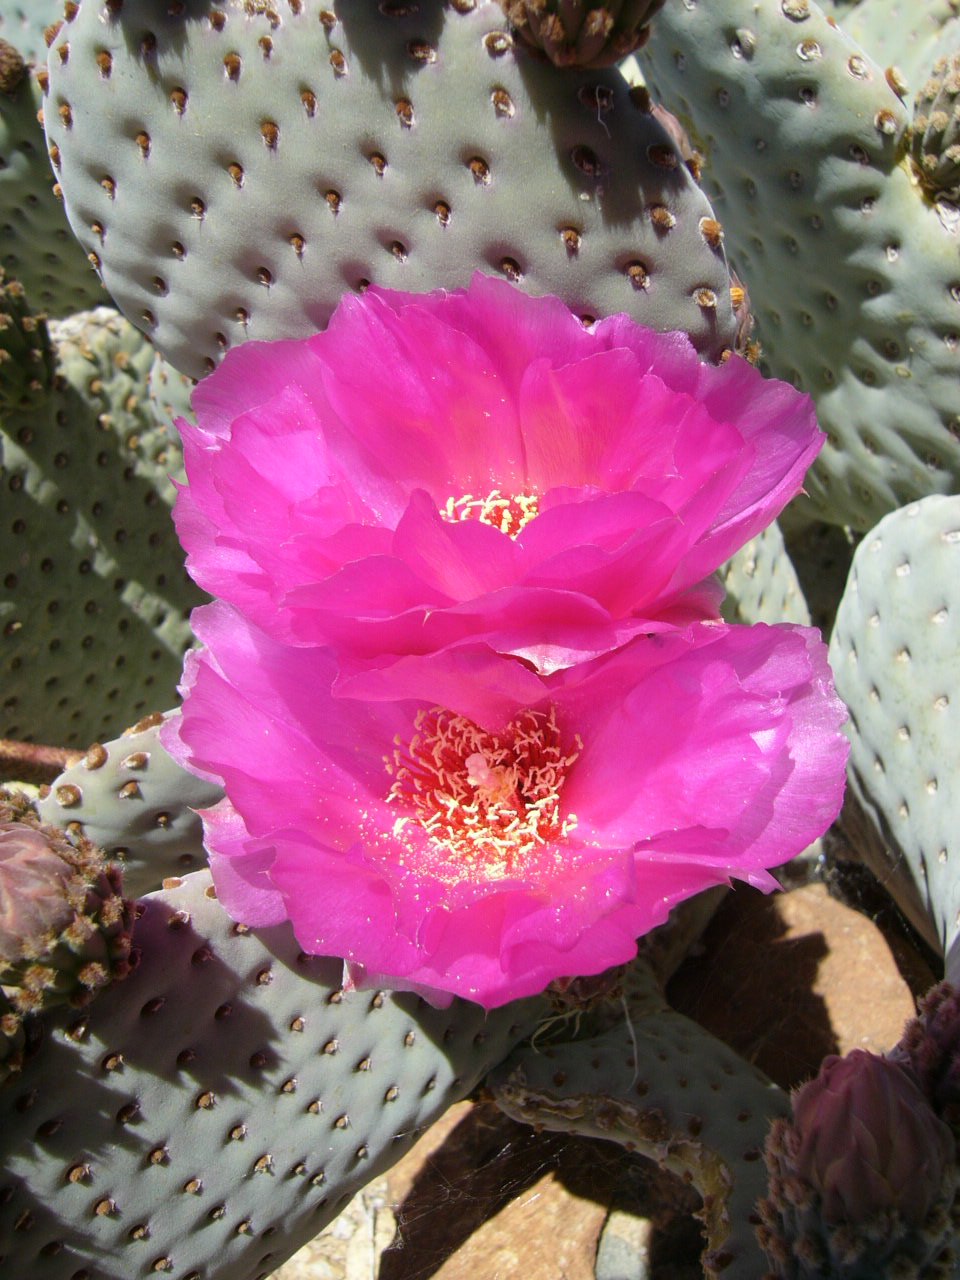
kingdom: Plantae
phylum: Tracheophyta
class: Magnoliopsida
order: Caryophyllales
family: Cactaceae
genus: Opuntia
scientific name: Opuntia basilaris
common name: Beavertail prickly-pear
